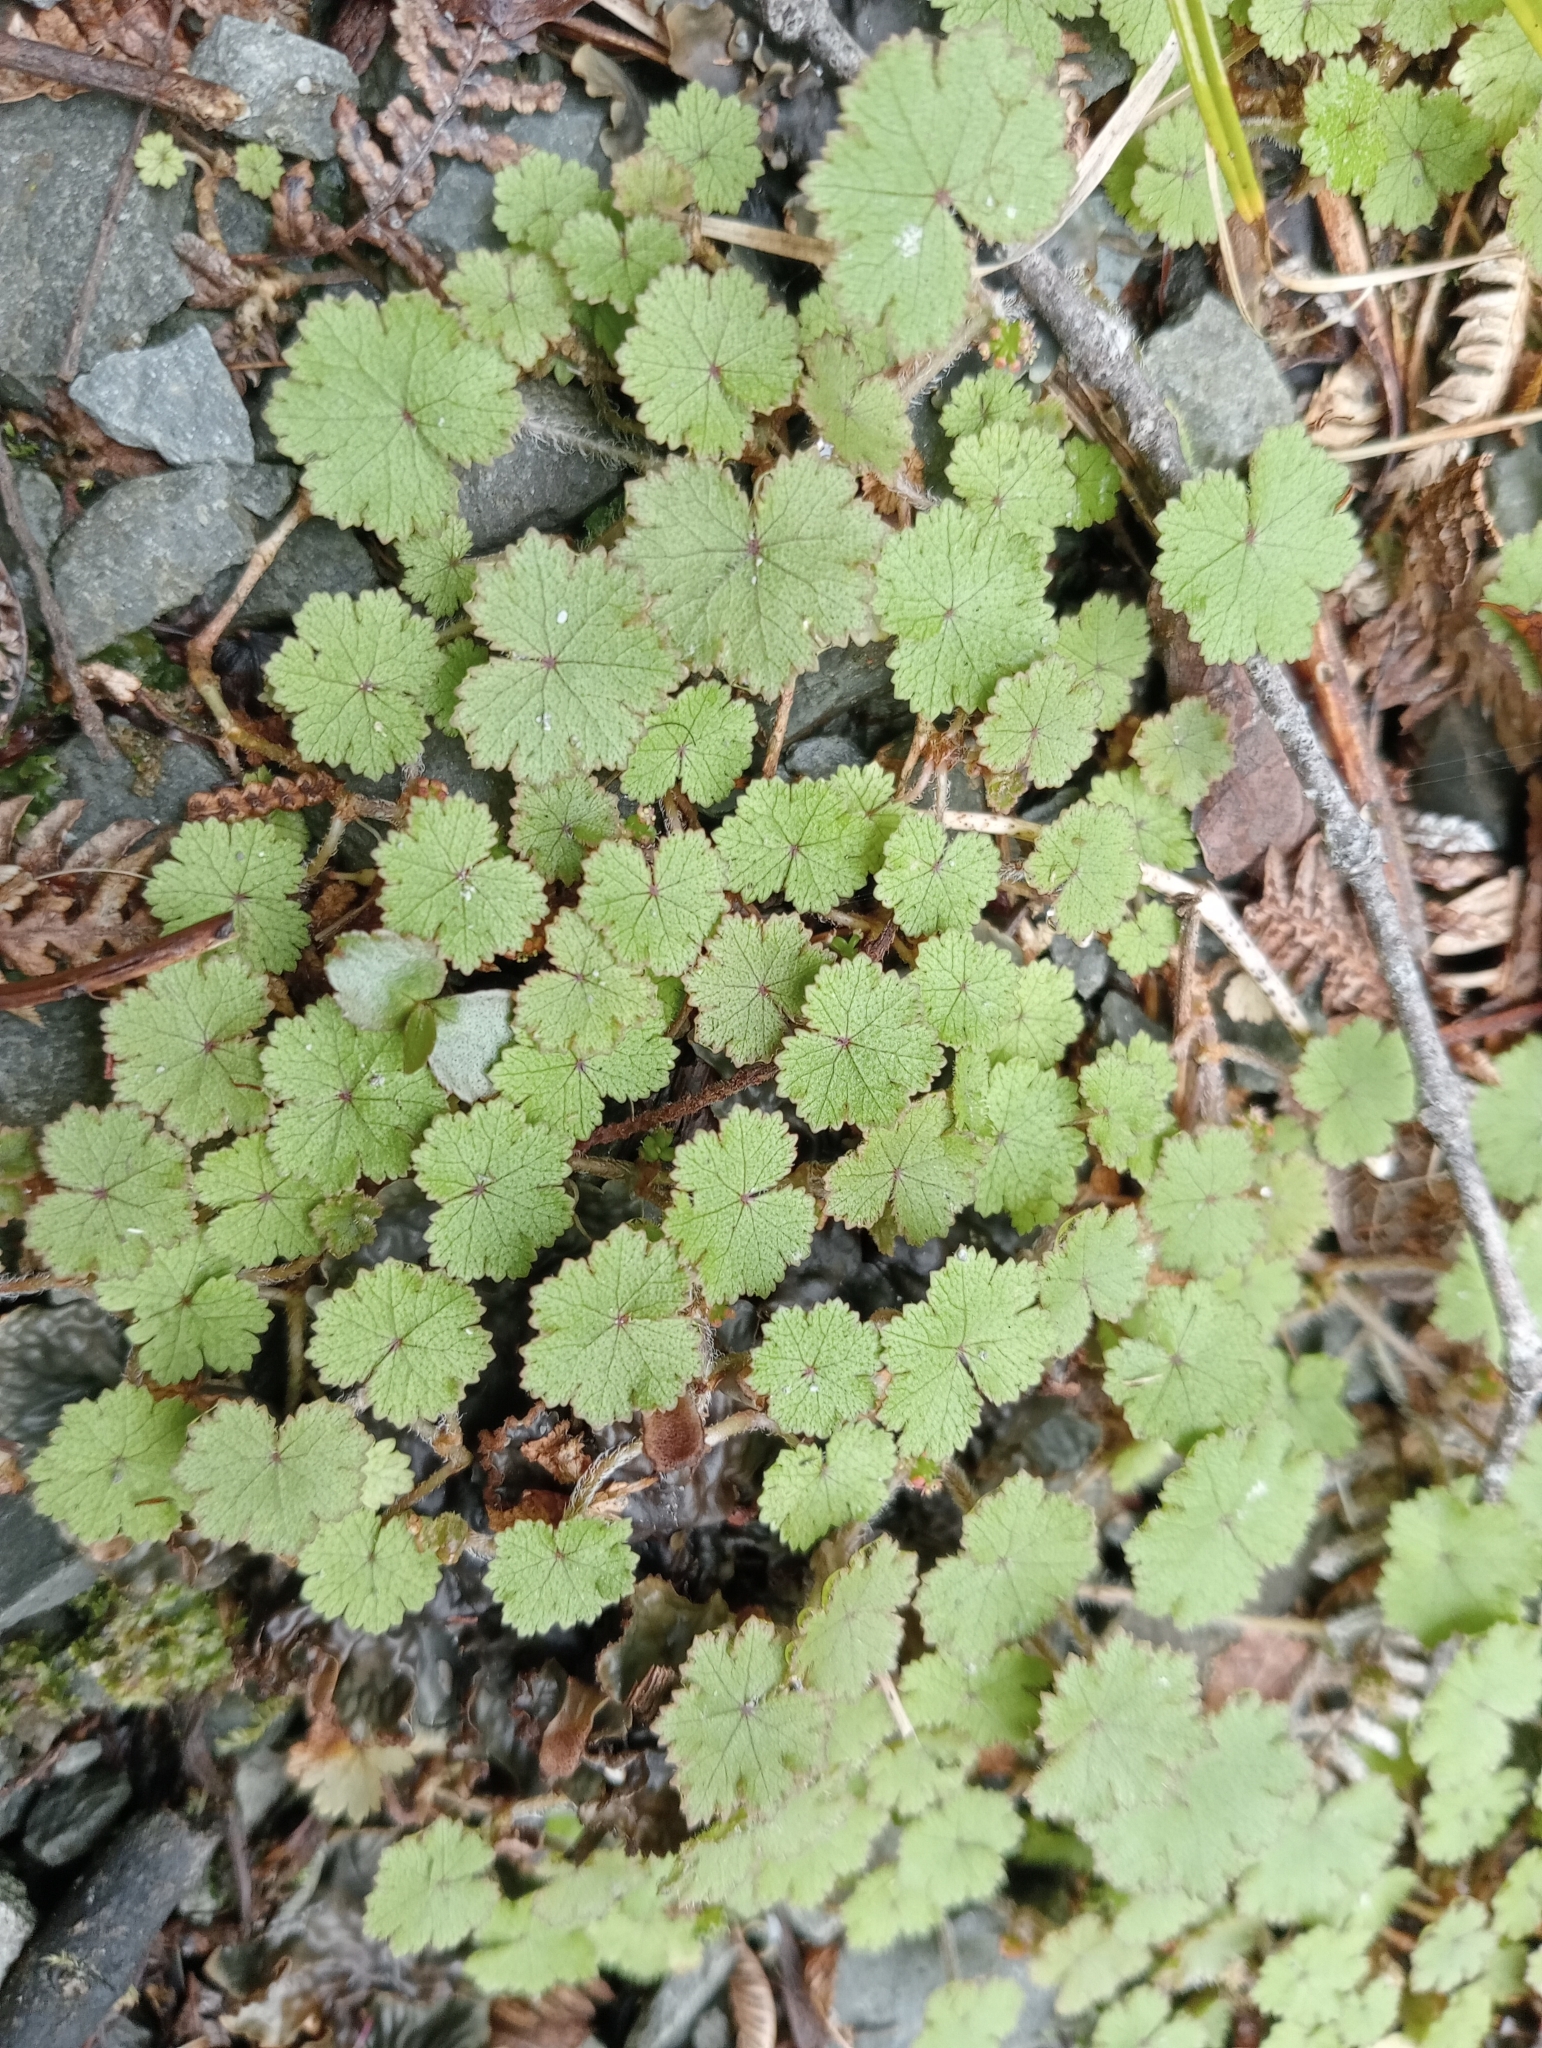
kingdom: Plantae
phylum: Tracheophyta
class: Magnoliopsida
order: Apiales
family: Araliaceae
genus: Hydrocotyle
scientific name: Hydrocotyle moschata
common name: Hairy pennywort
